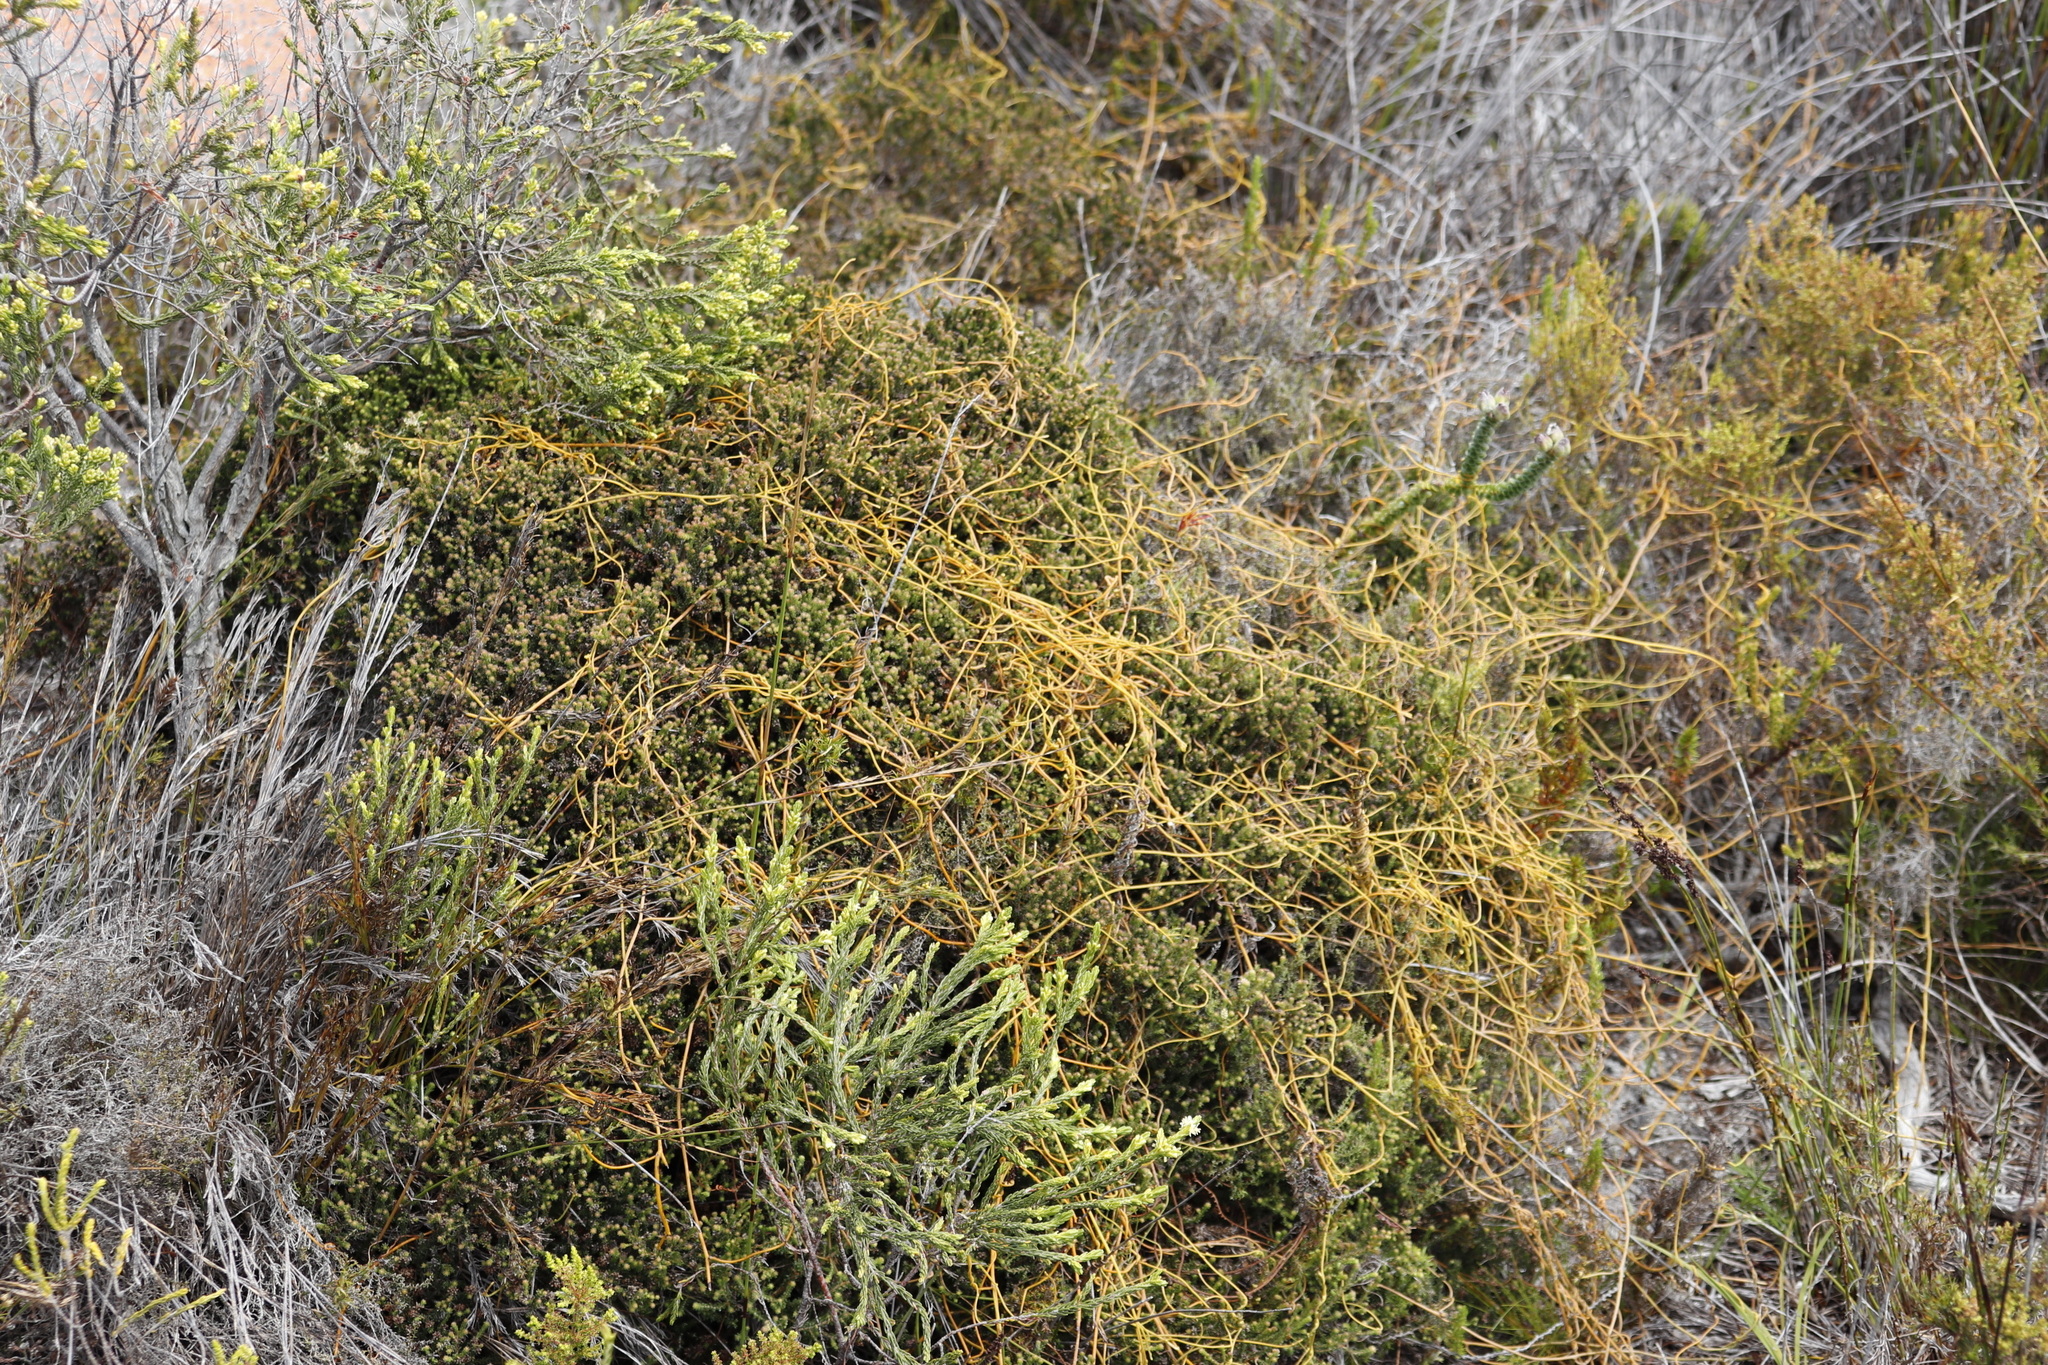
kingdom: Plantae
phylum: Tracheophyta
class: Magnoliopsida
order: Laurales
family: Lauraceae
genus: Cassytha
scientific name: Cassytha ciliolata
